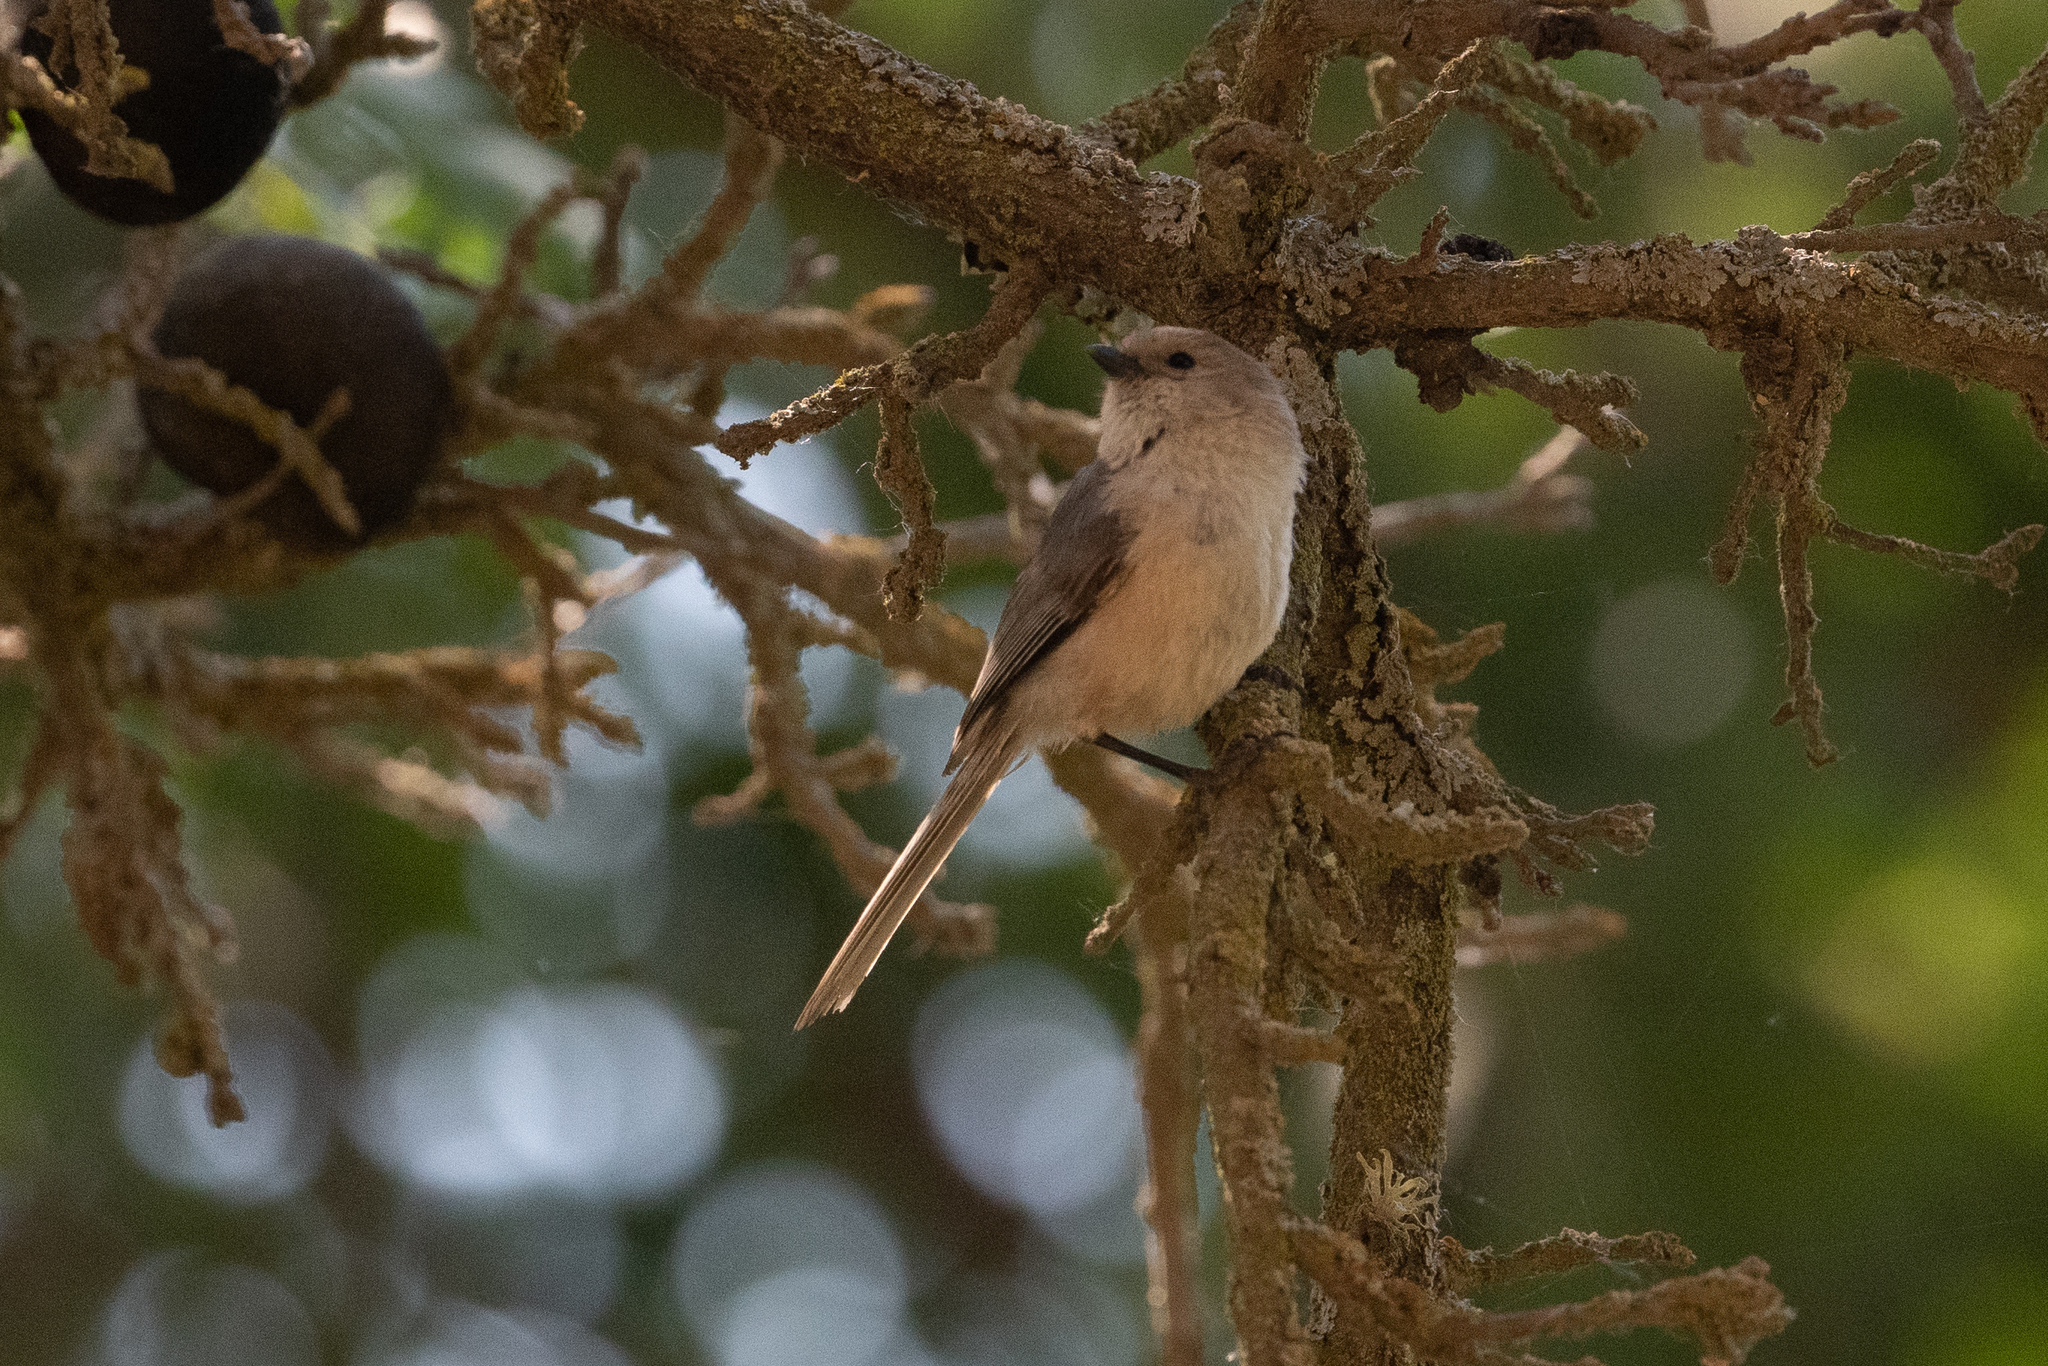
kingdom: Animalia
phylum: Chordata
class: Aves
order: Passeriformes
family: Aegithalidae
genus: Psaltriparus
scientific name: Psaltriparus minimus
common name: American bushtit
